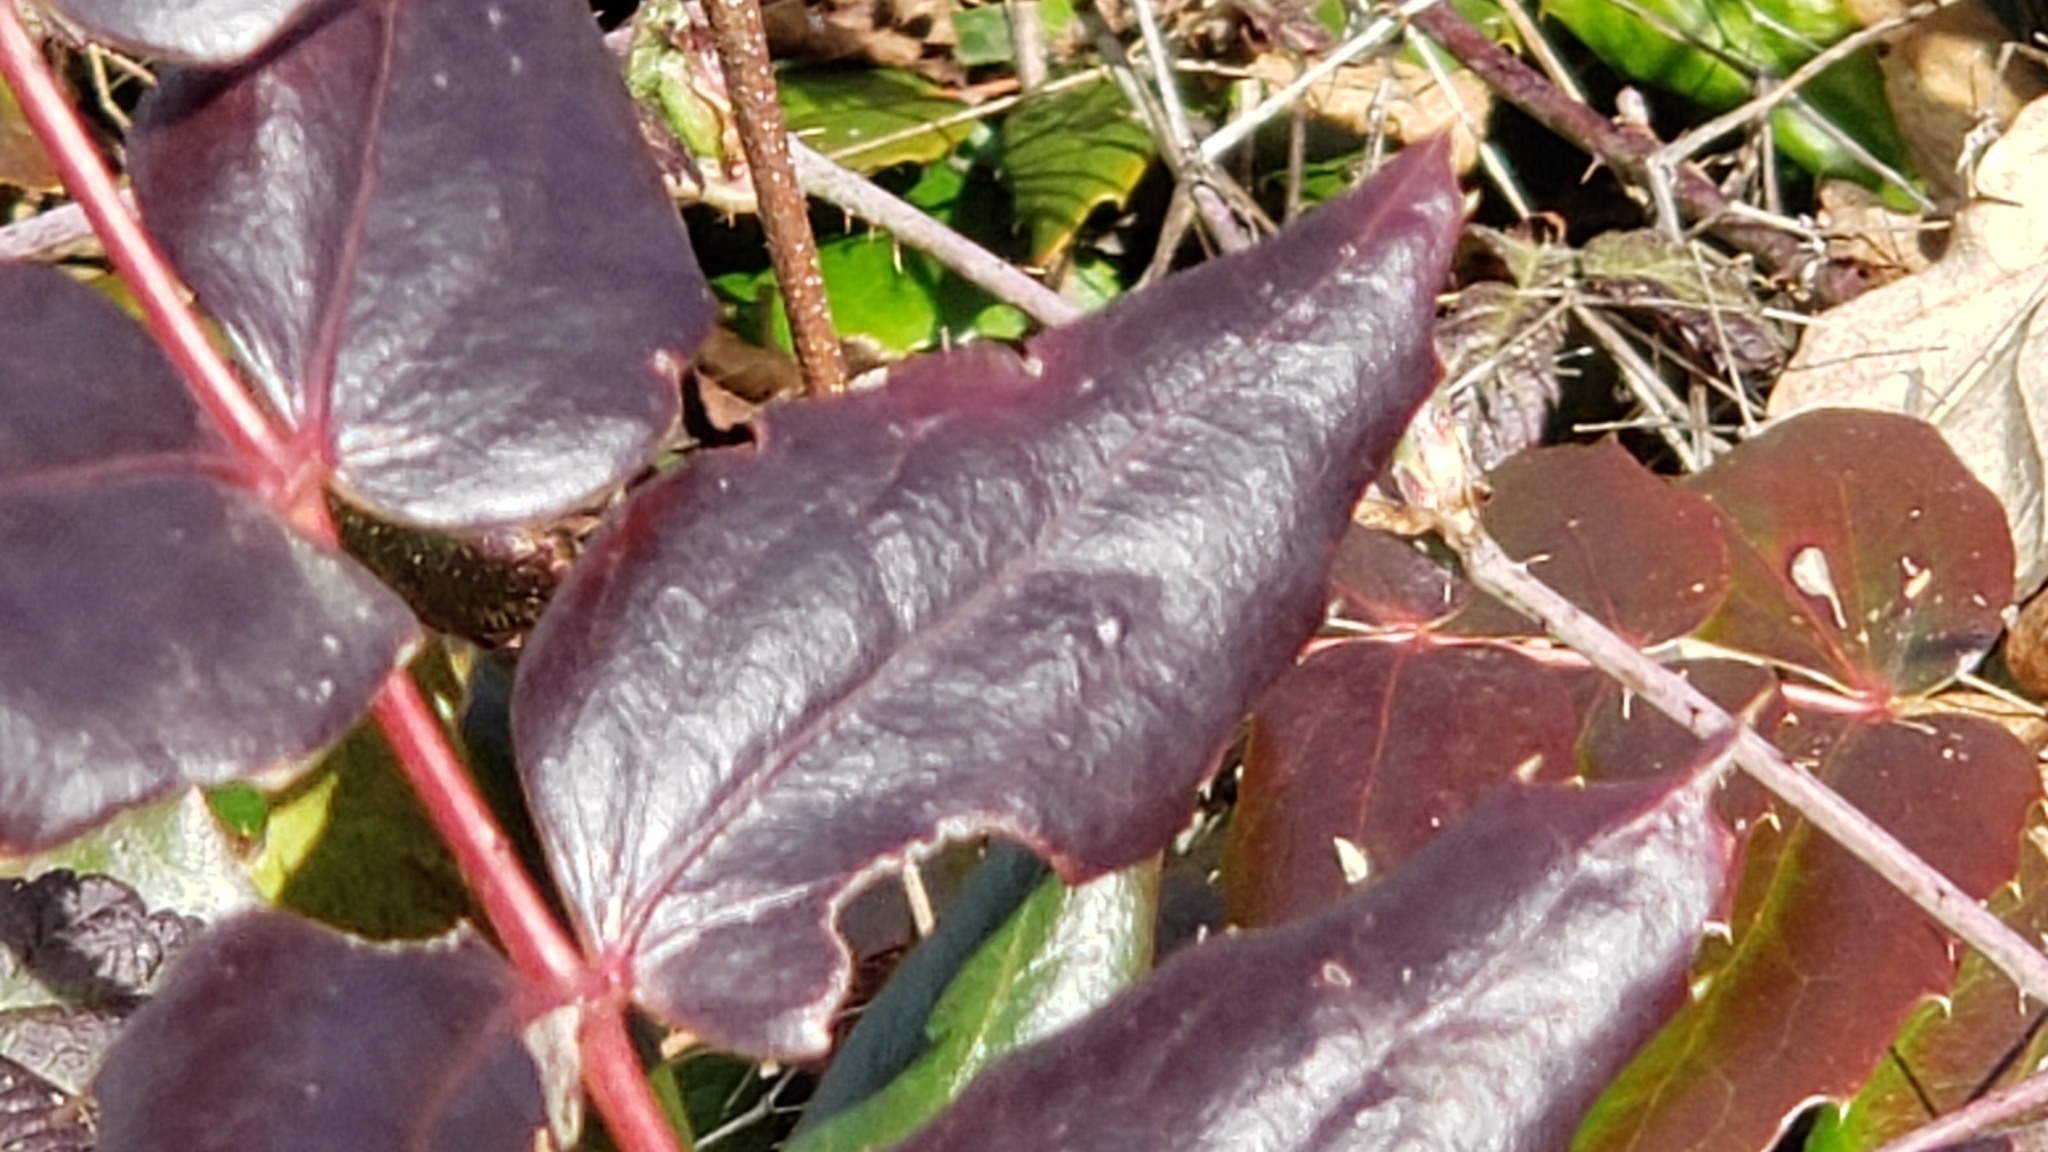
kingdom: Plantae
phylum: Tracheophyta
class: Magnoliopsida
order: Ranunculales
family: Berberidaceae
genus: Mahonia
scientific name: Mahonia nervosa
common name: Cascade oregon-grape
